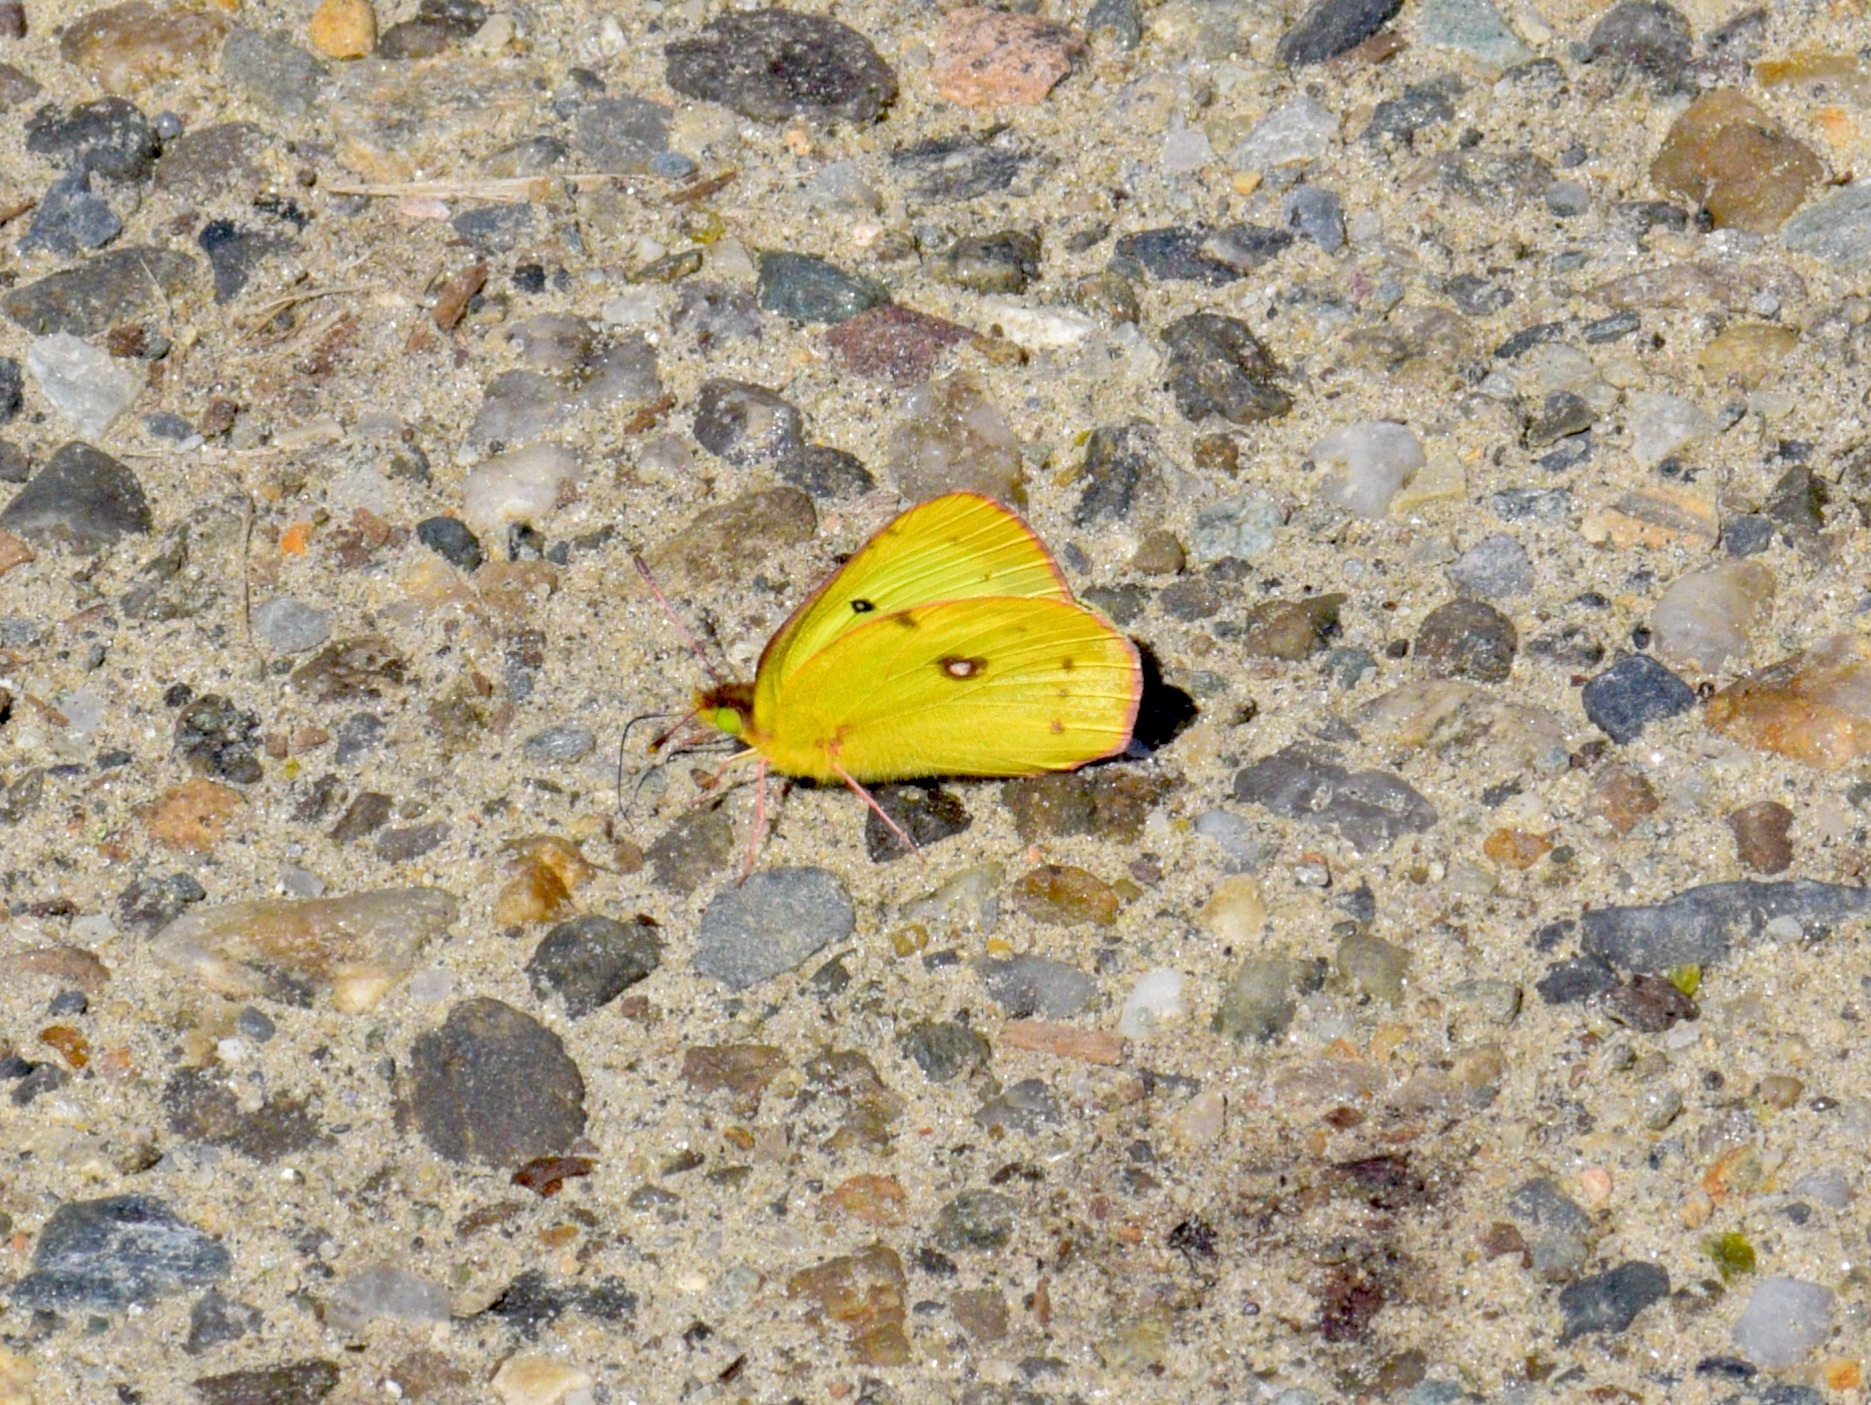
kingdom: Animalia
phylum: Arthropoda
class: Insecta
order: Lepidoptera
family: Pieridae
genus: Colias
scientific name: Colias philodice
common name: Clouded sulphur
